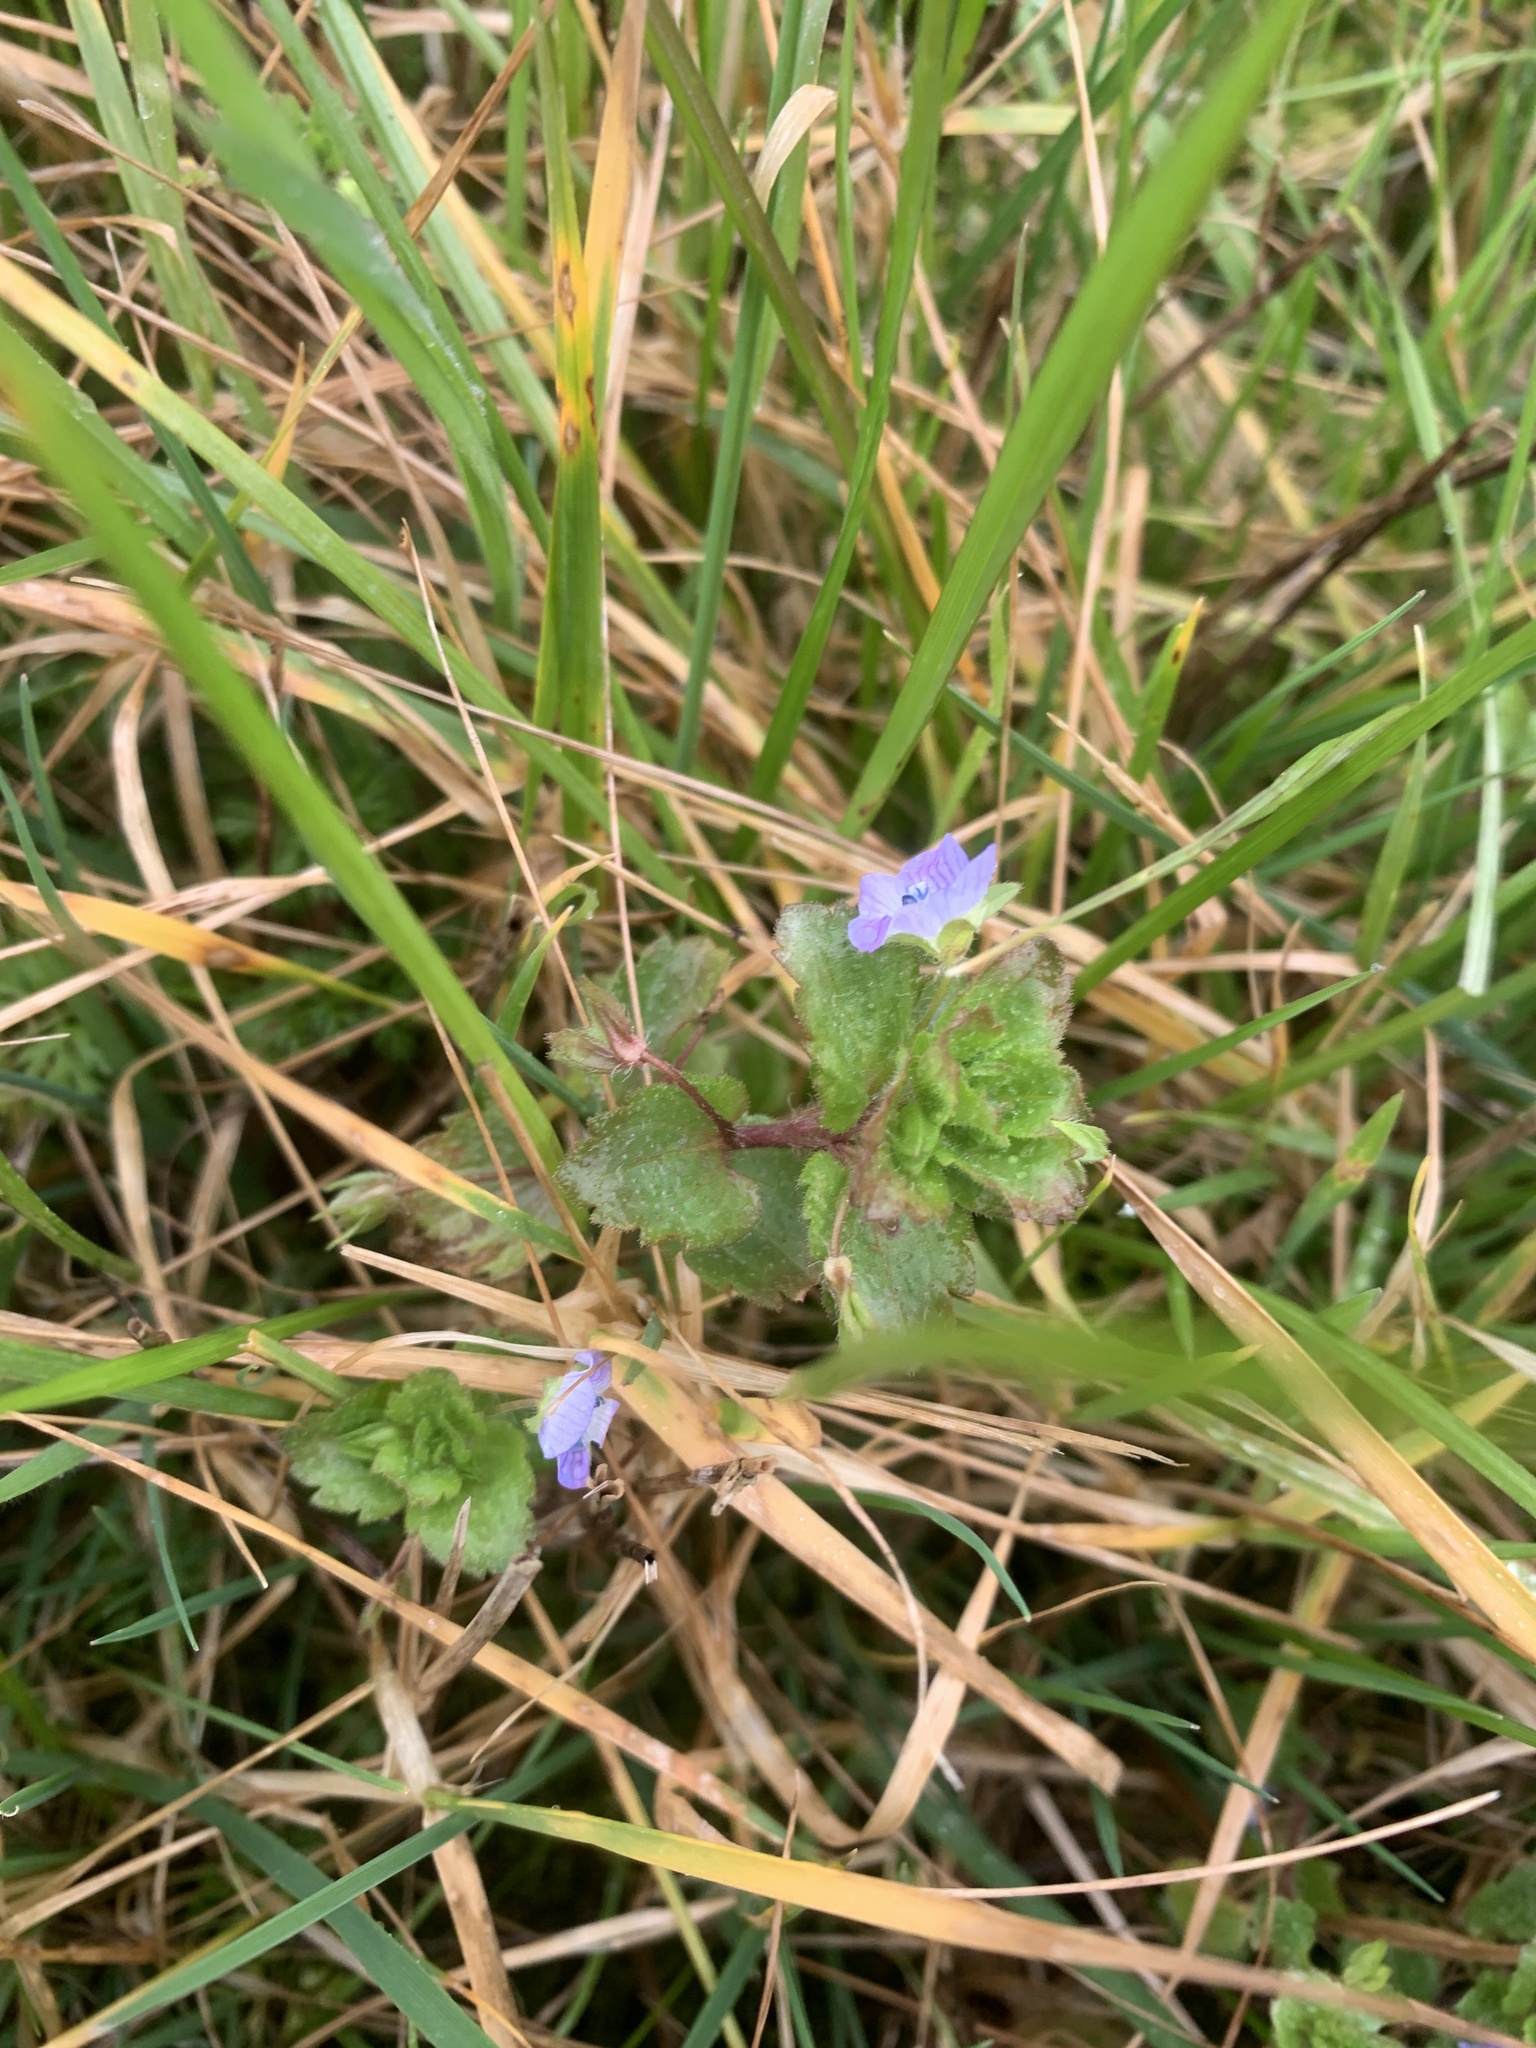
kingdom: Plantae
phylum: Tracheophyta
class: Magnoliopsida
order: Lamiales
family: Plantaginaceae
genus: Veronica
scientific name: Veronica persica
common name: Common field-speedwell
